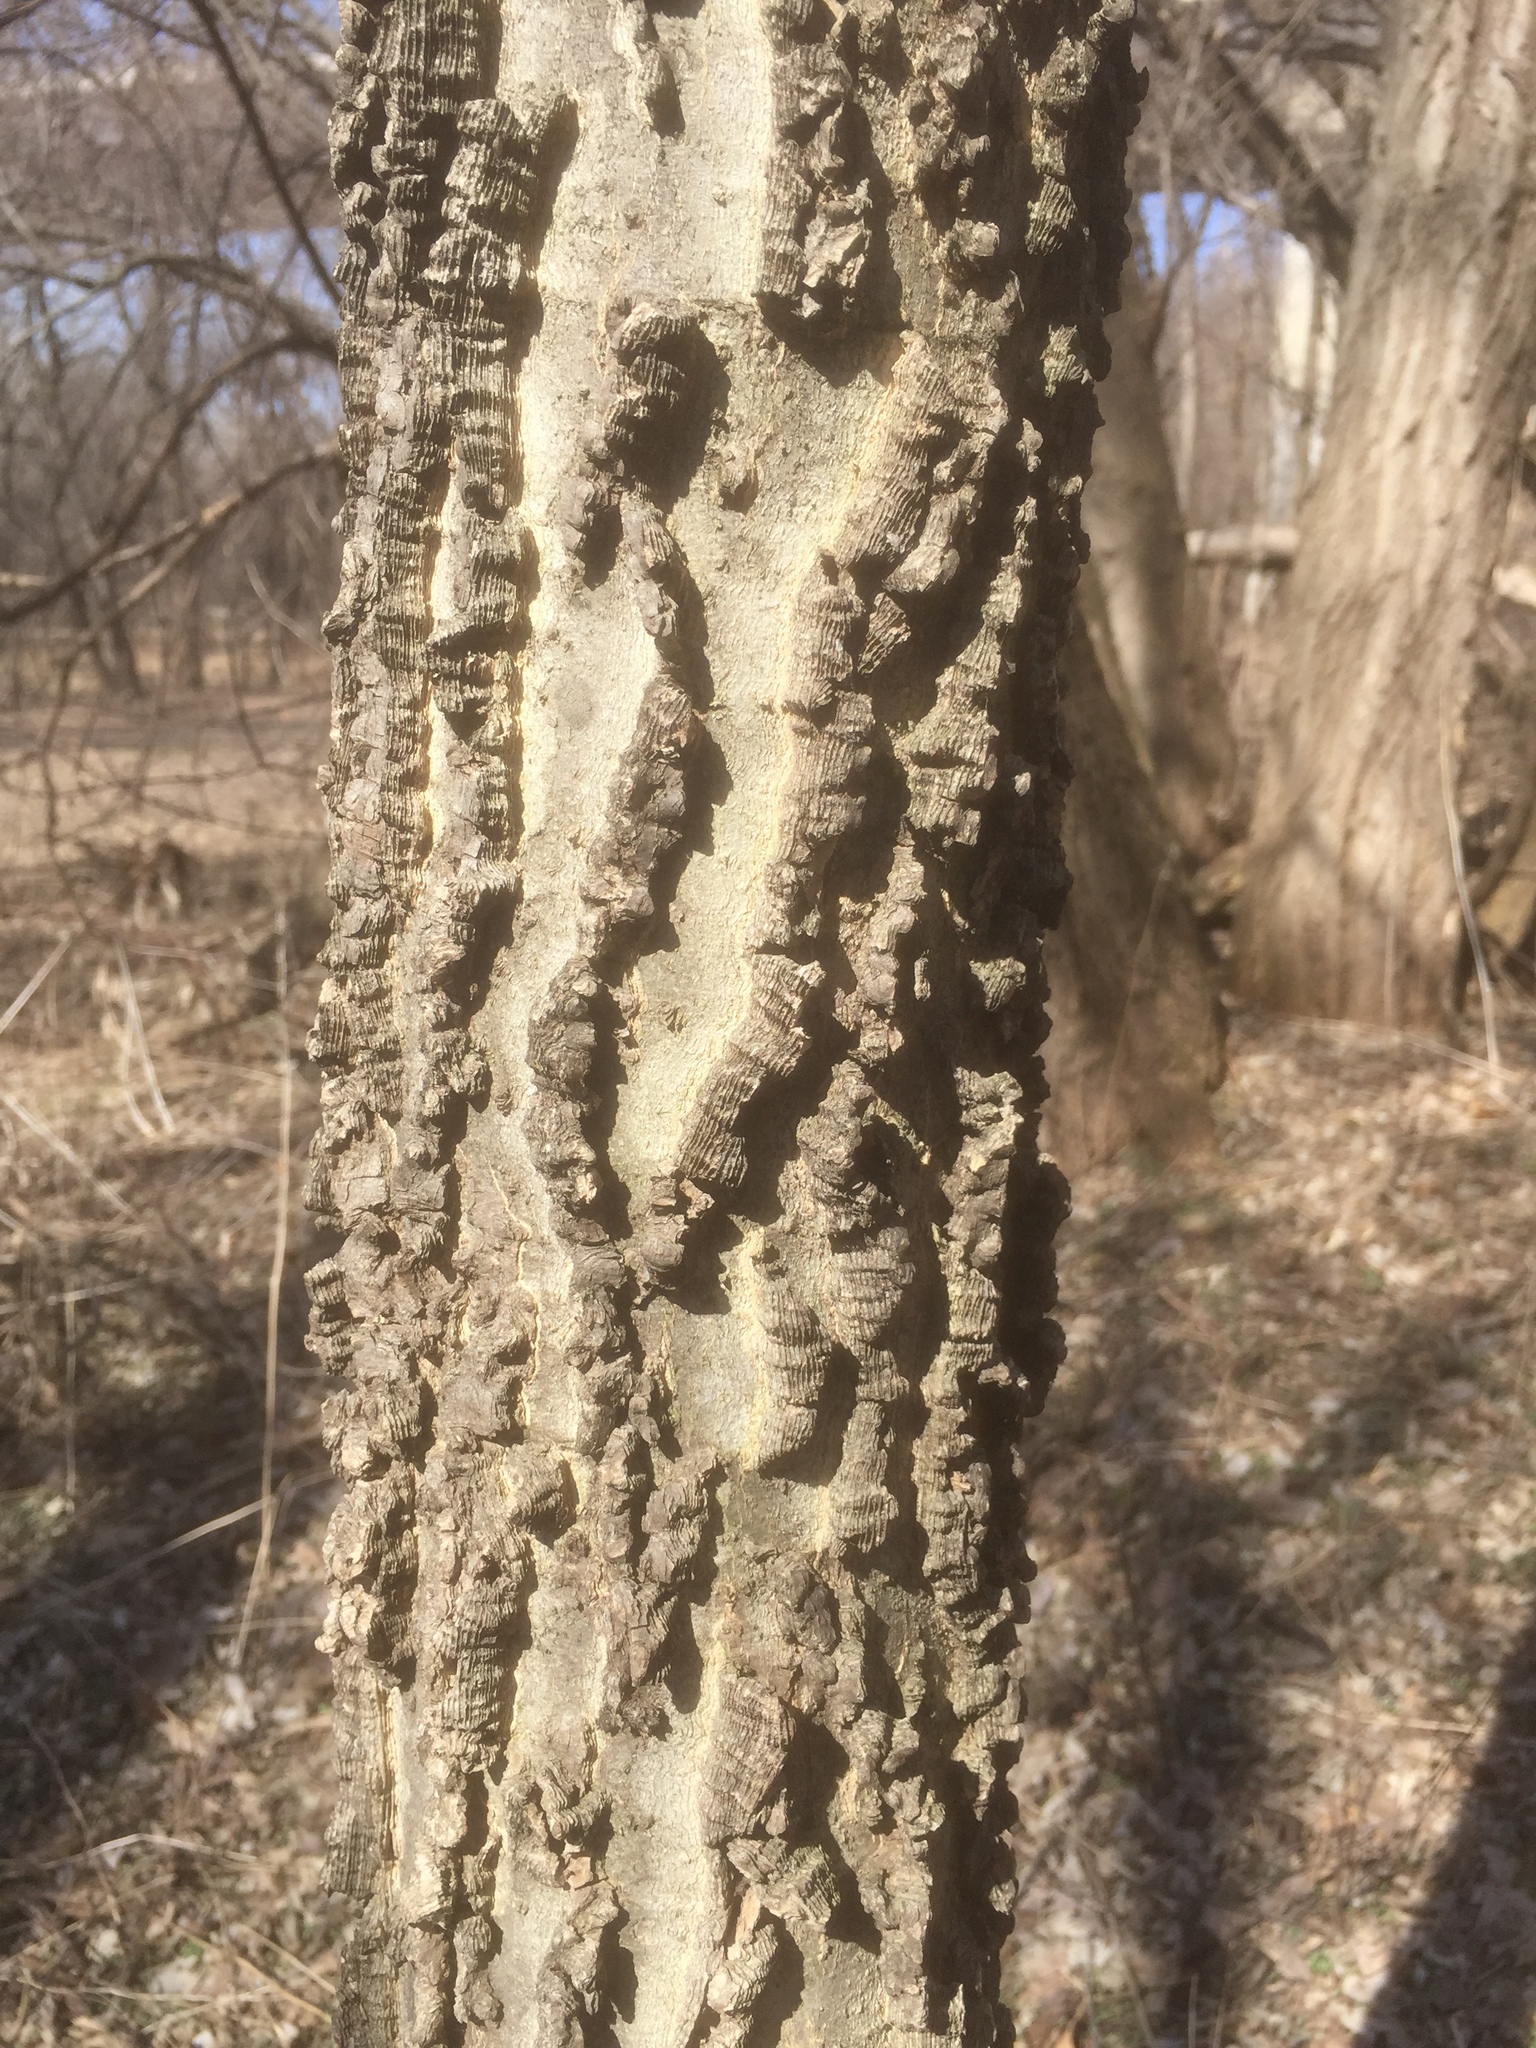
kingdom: Plantae
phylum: Tracheophyta
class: Magnoliopsida
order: Rosales
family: Cannabaceae
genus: Celtis
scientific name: Celtis occidentalis
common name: Common hackberry
